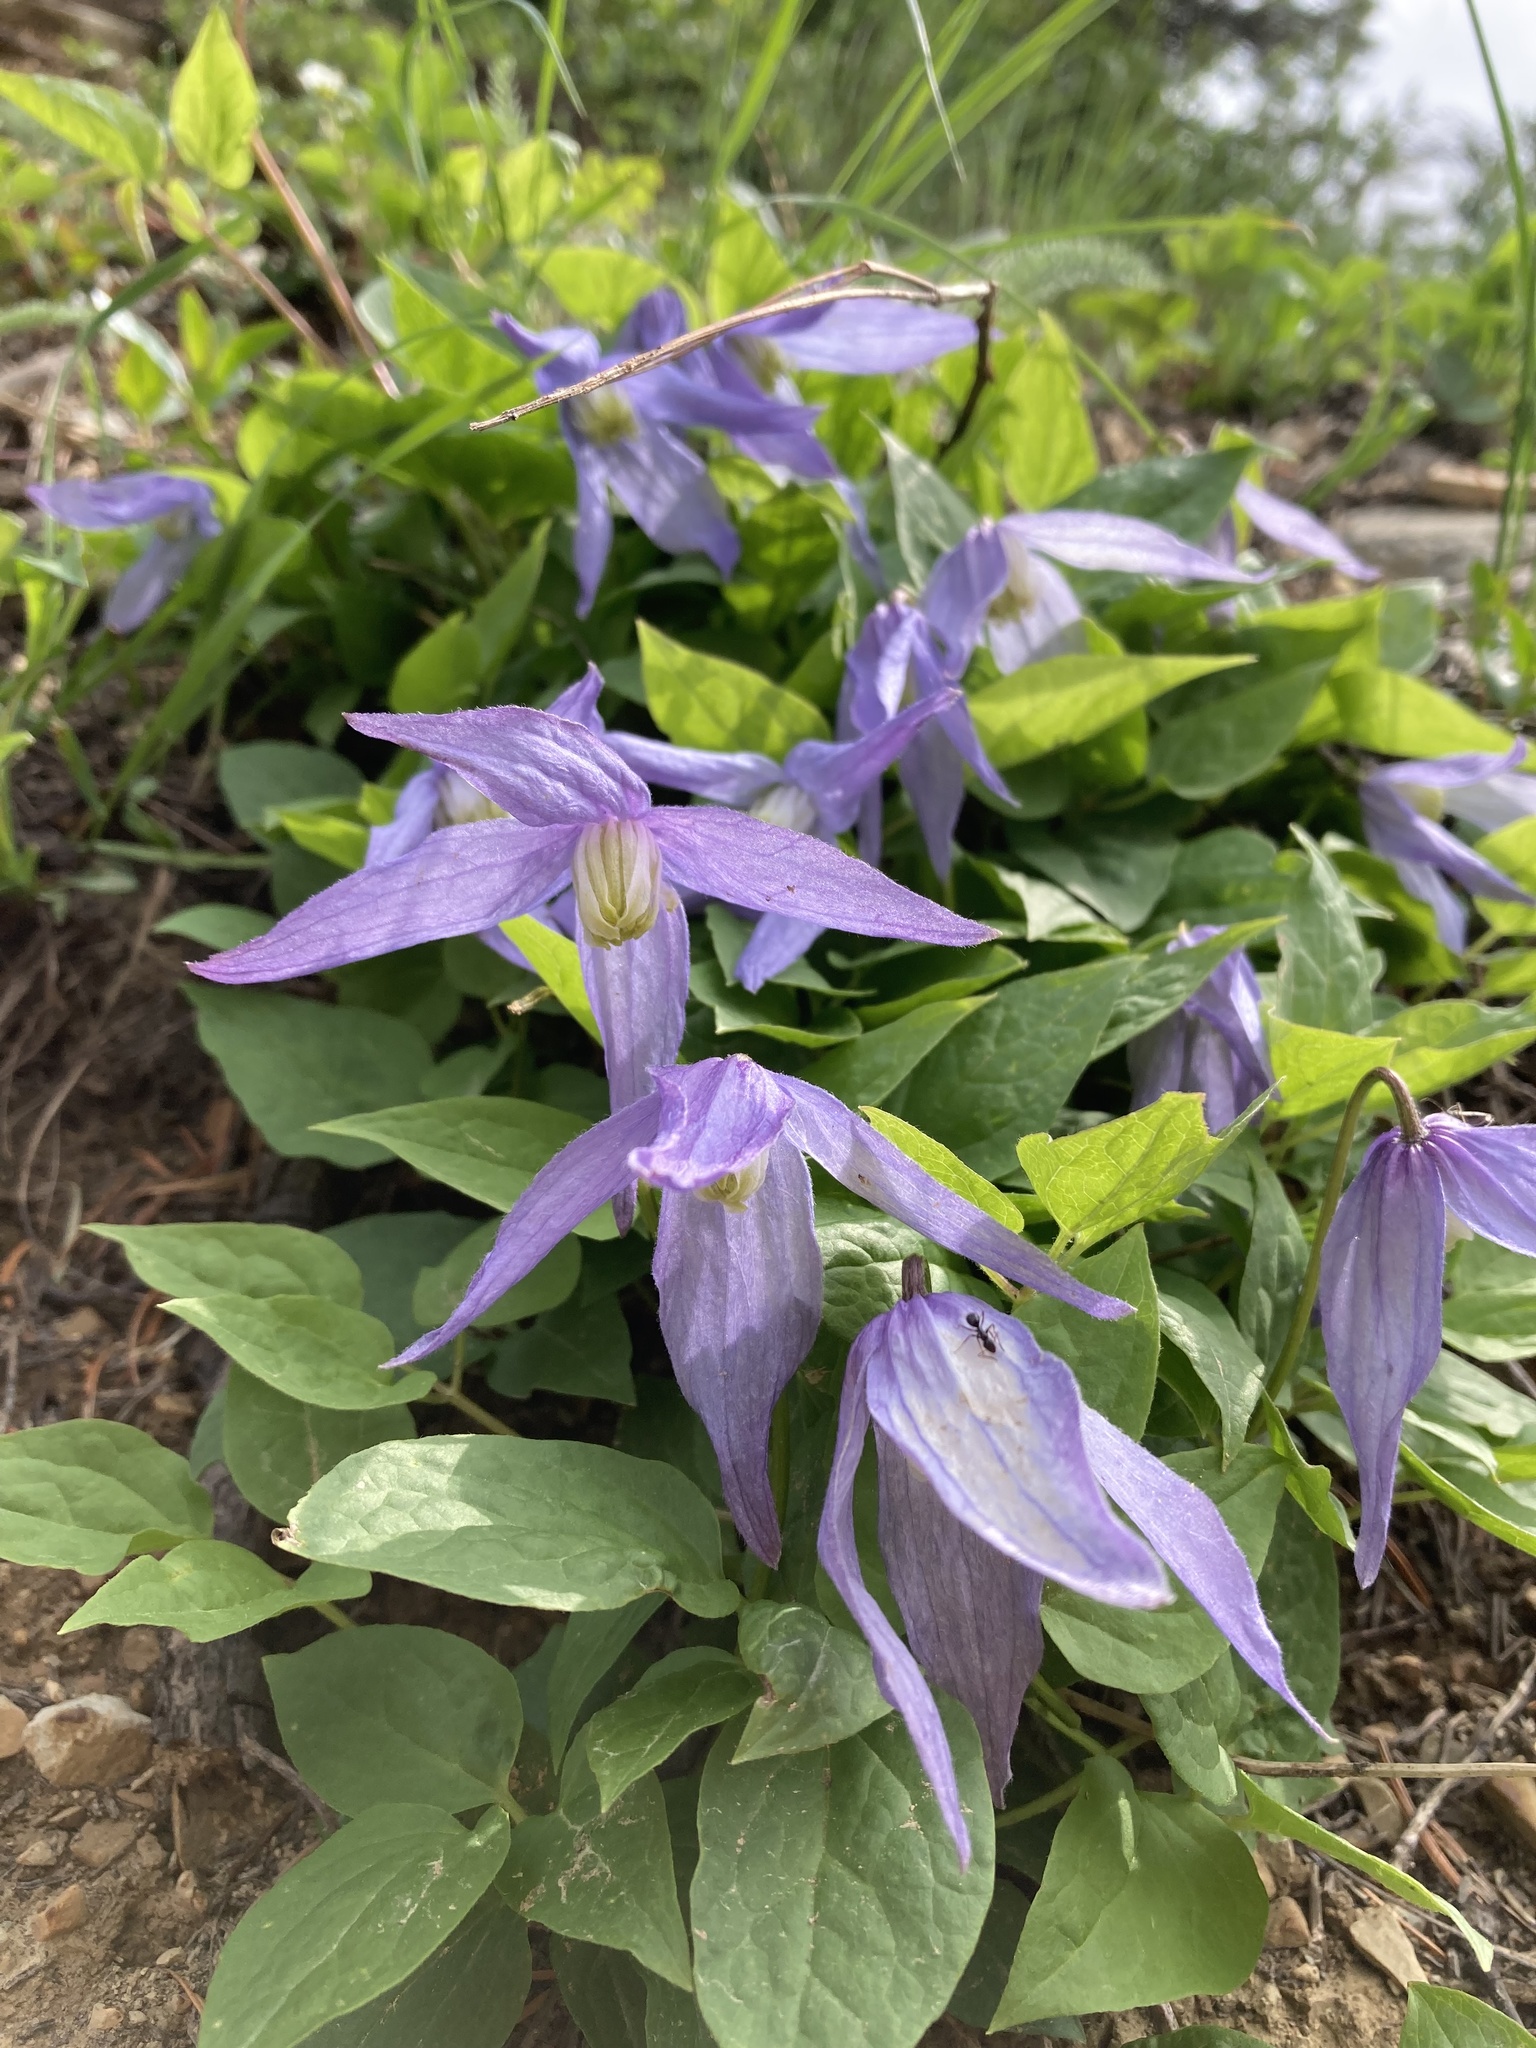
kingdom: Plantae
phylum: Tracheophyta
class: Magnoliopsida
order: Ranunculales
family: Ranunculaceae
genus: Clematis
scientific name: Clematis occidentalis
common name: Purple clematis
